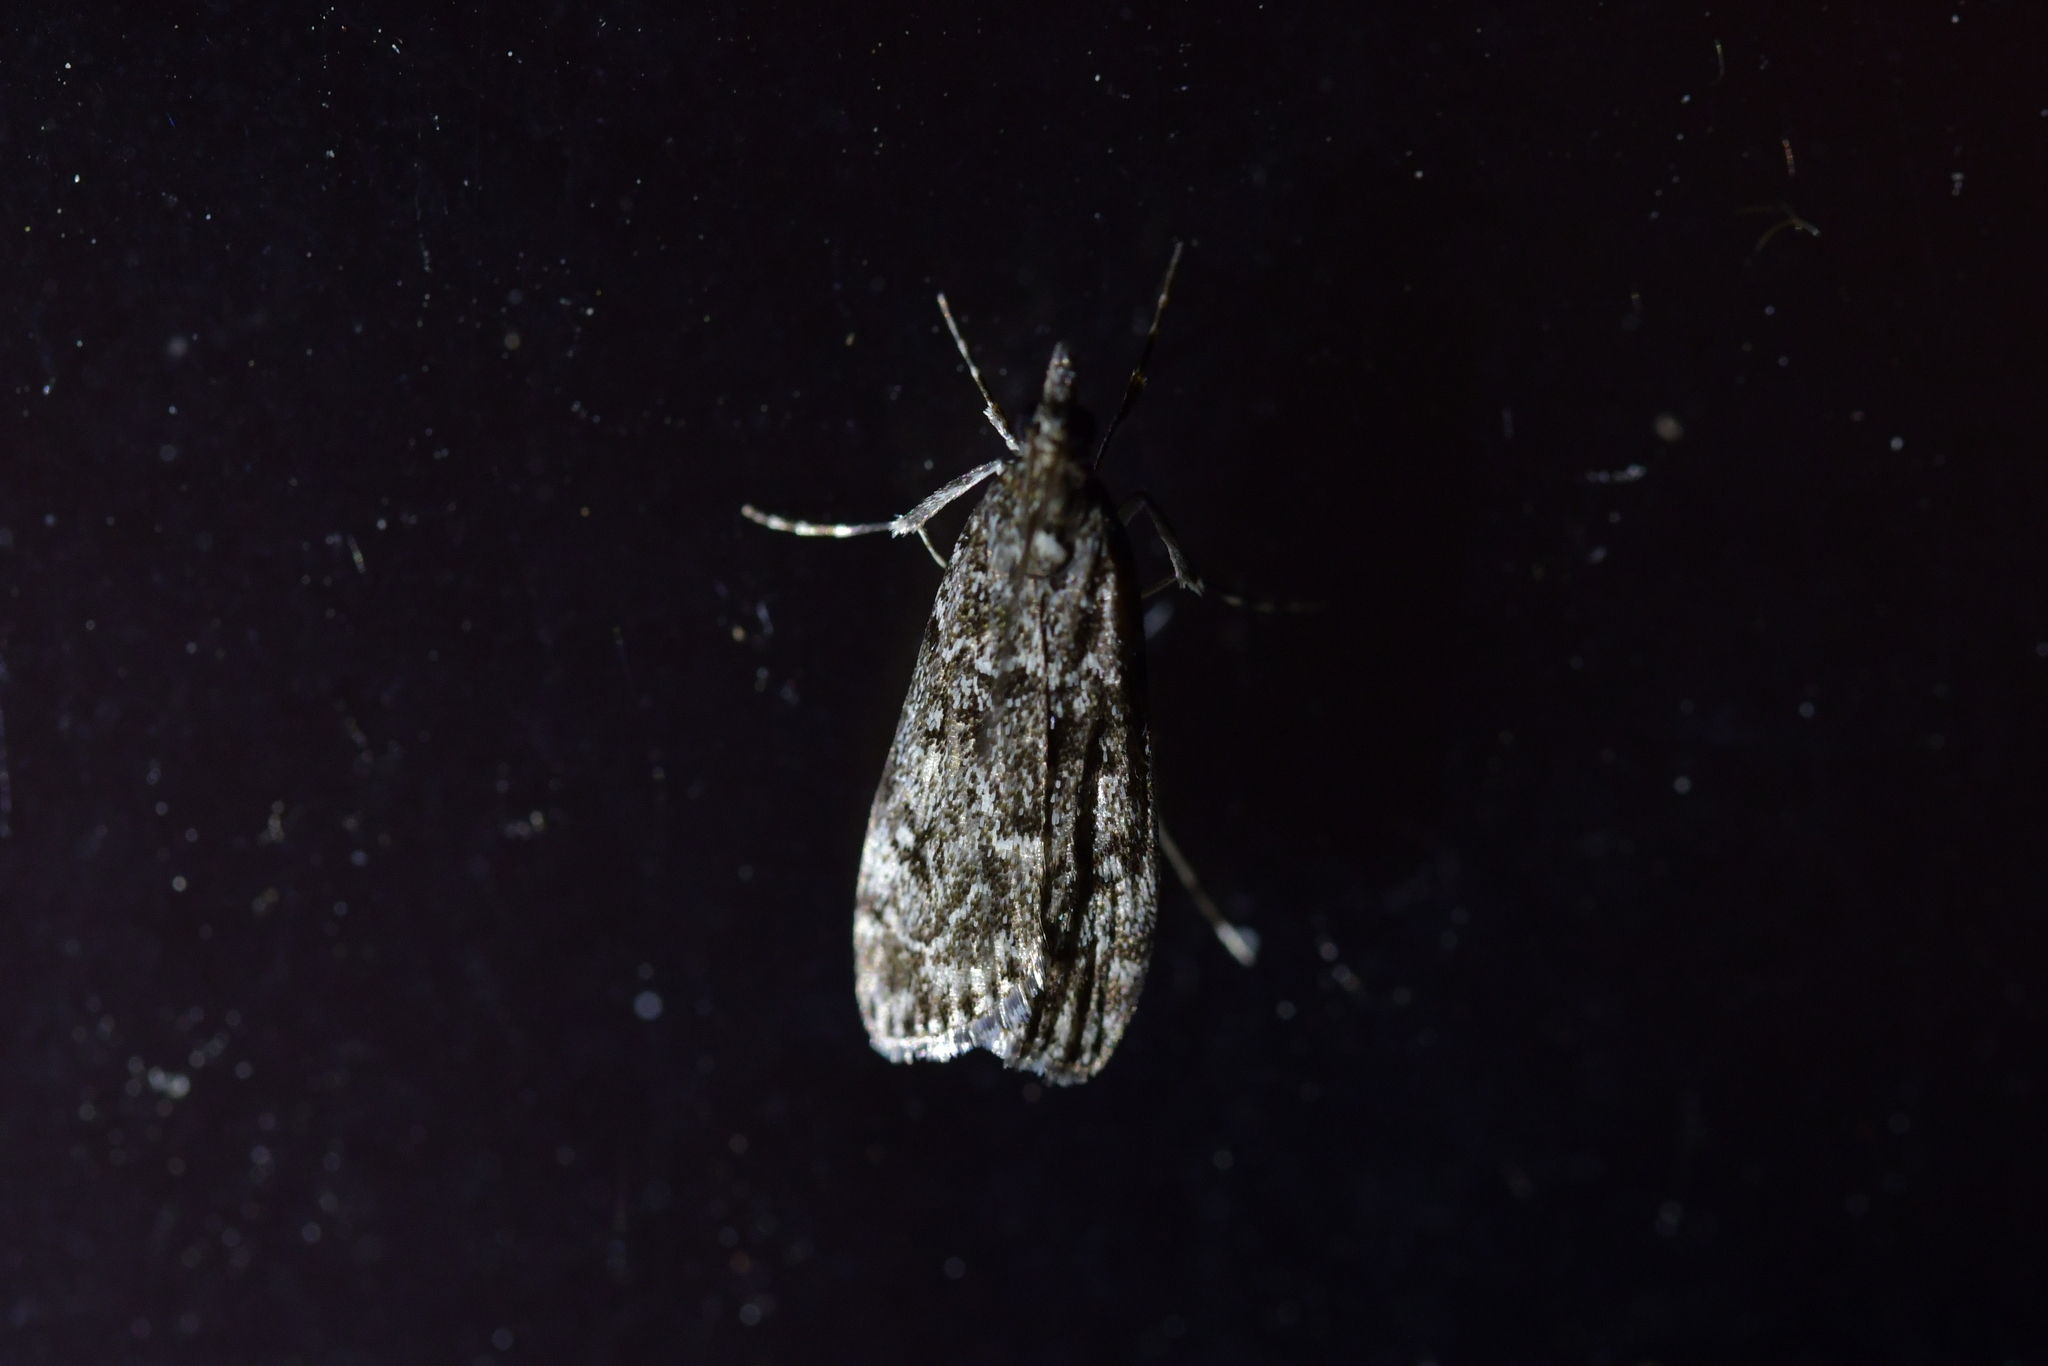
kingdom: Animalia
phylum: Arthropoda
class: Insecta
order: Lepidoptera
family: Crambidae
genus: Eudonia
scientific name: Eudonia philerga
